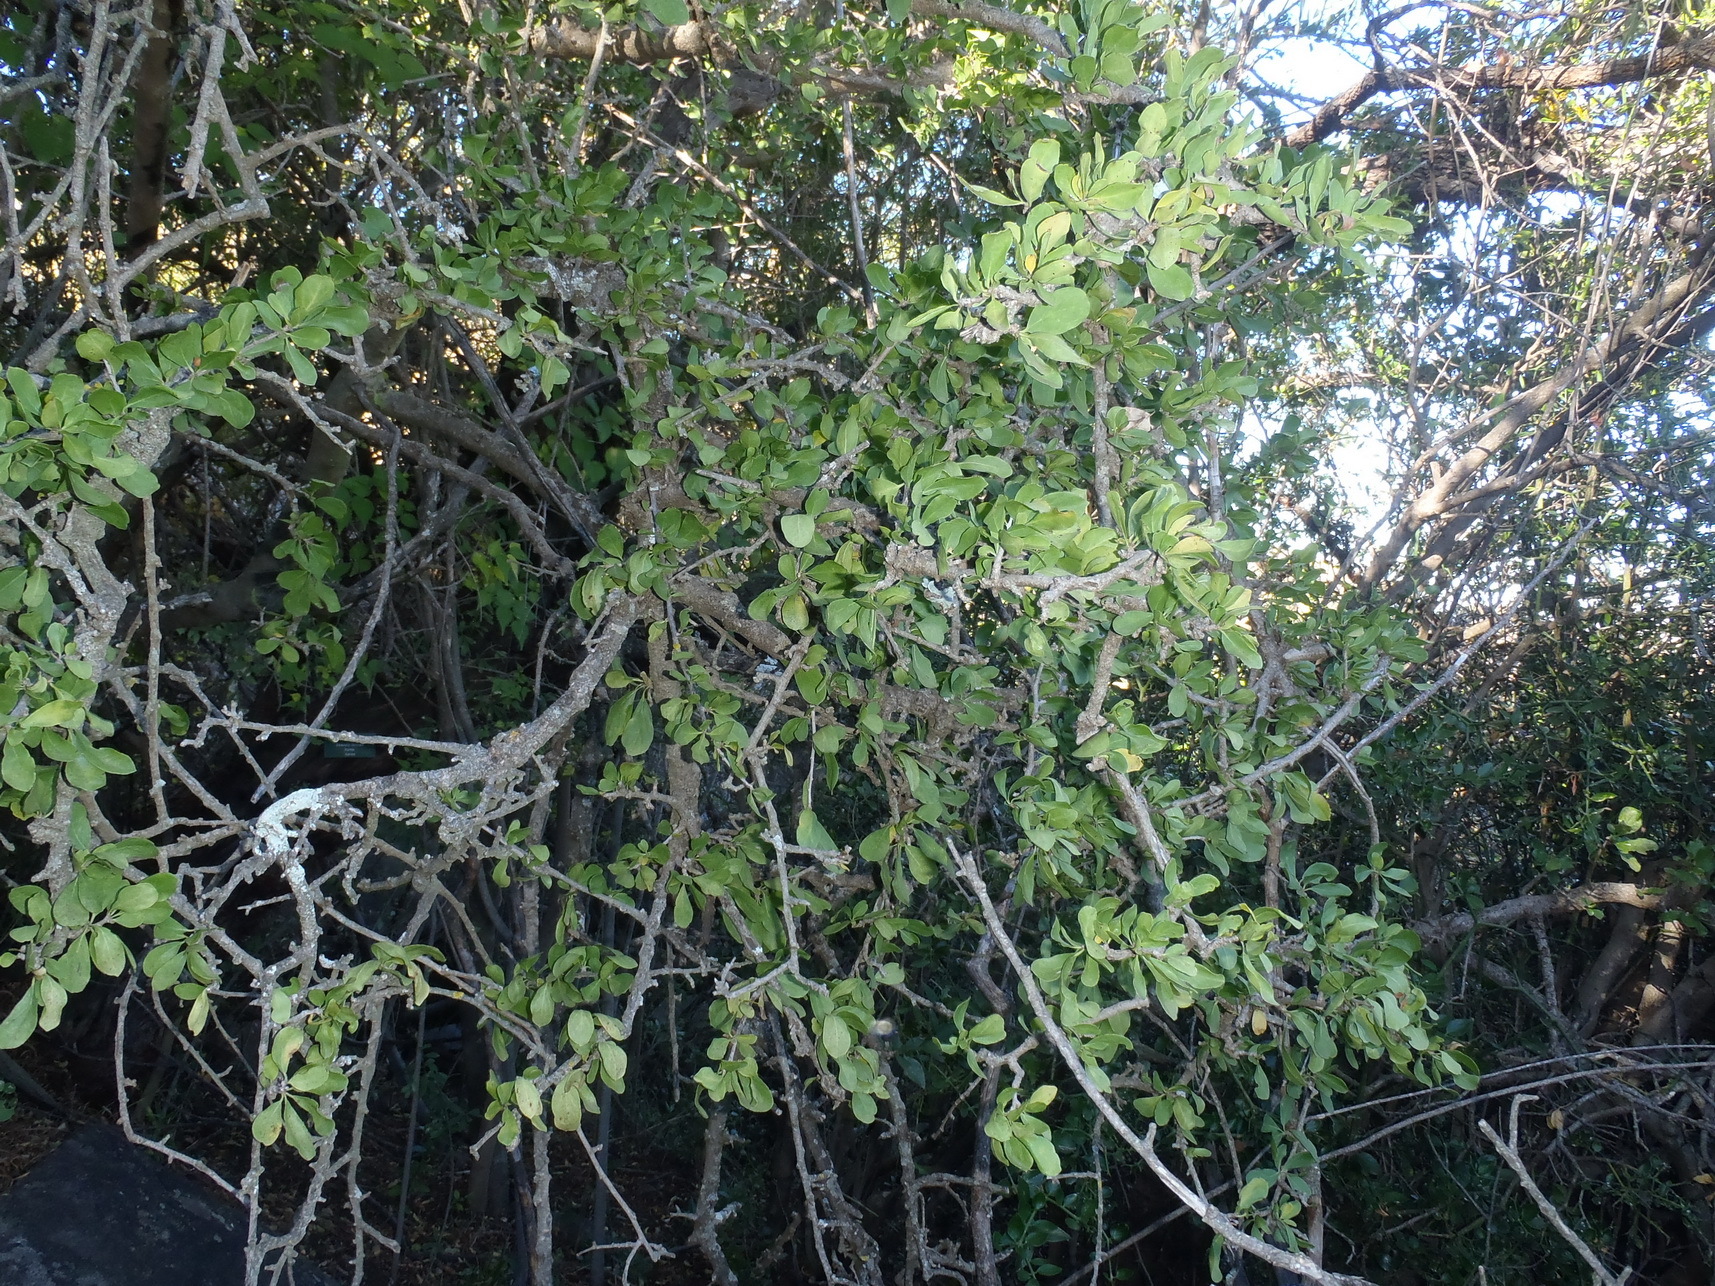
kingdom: Plantae
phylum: Tracheophyta
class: Magnoliopsida
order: Boraginales
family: Ehretiaceae
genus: Ehretia
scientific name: Ehretia rigida
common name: Cape lilac
